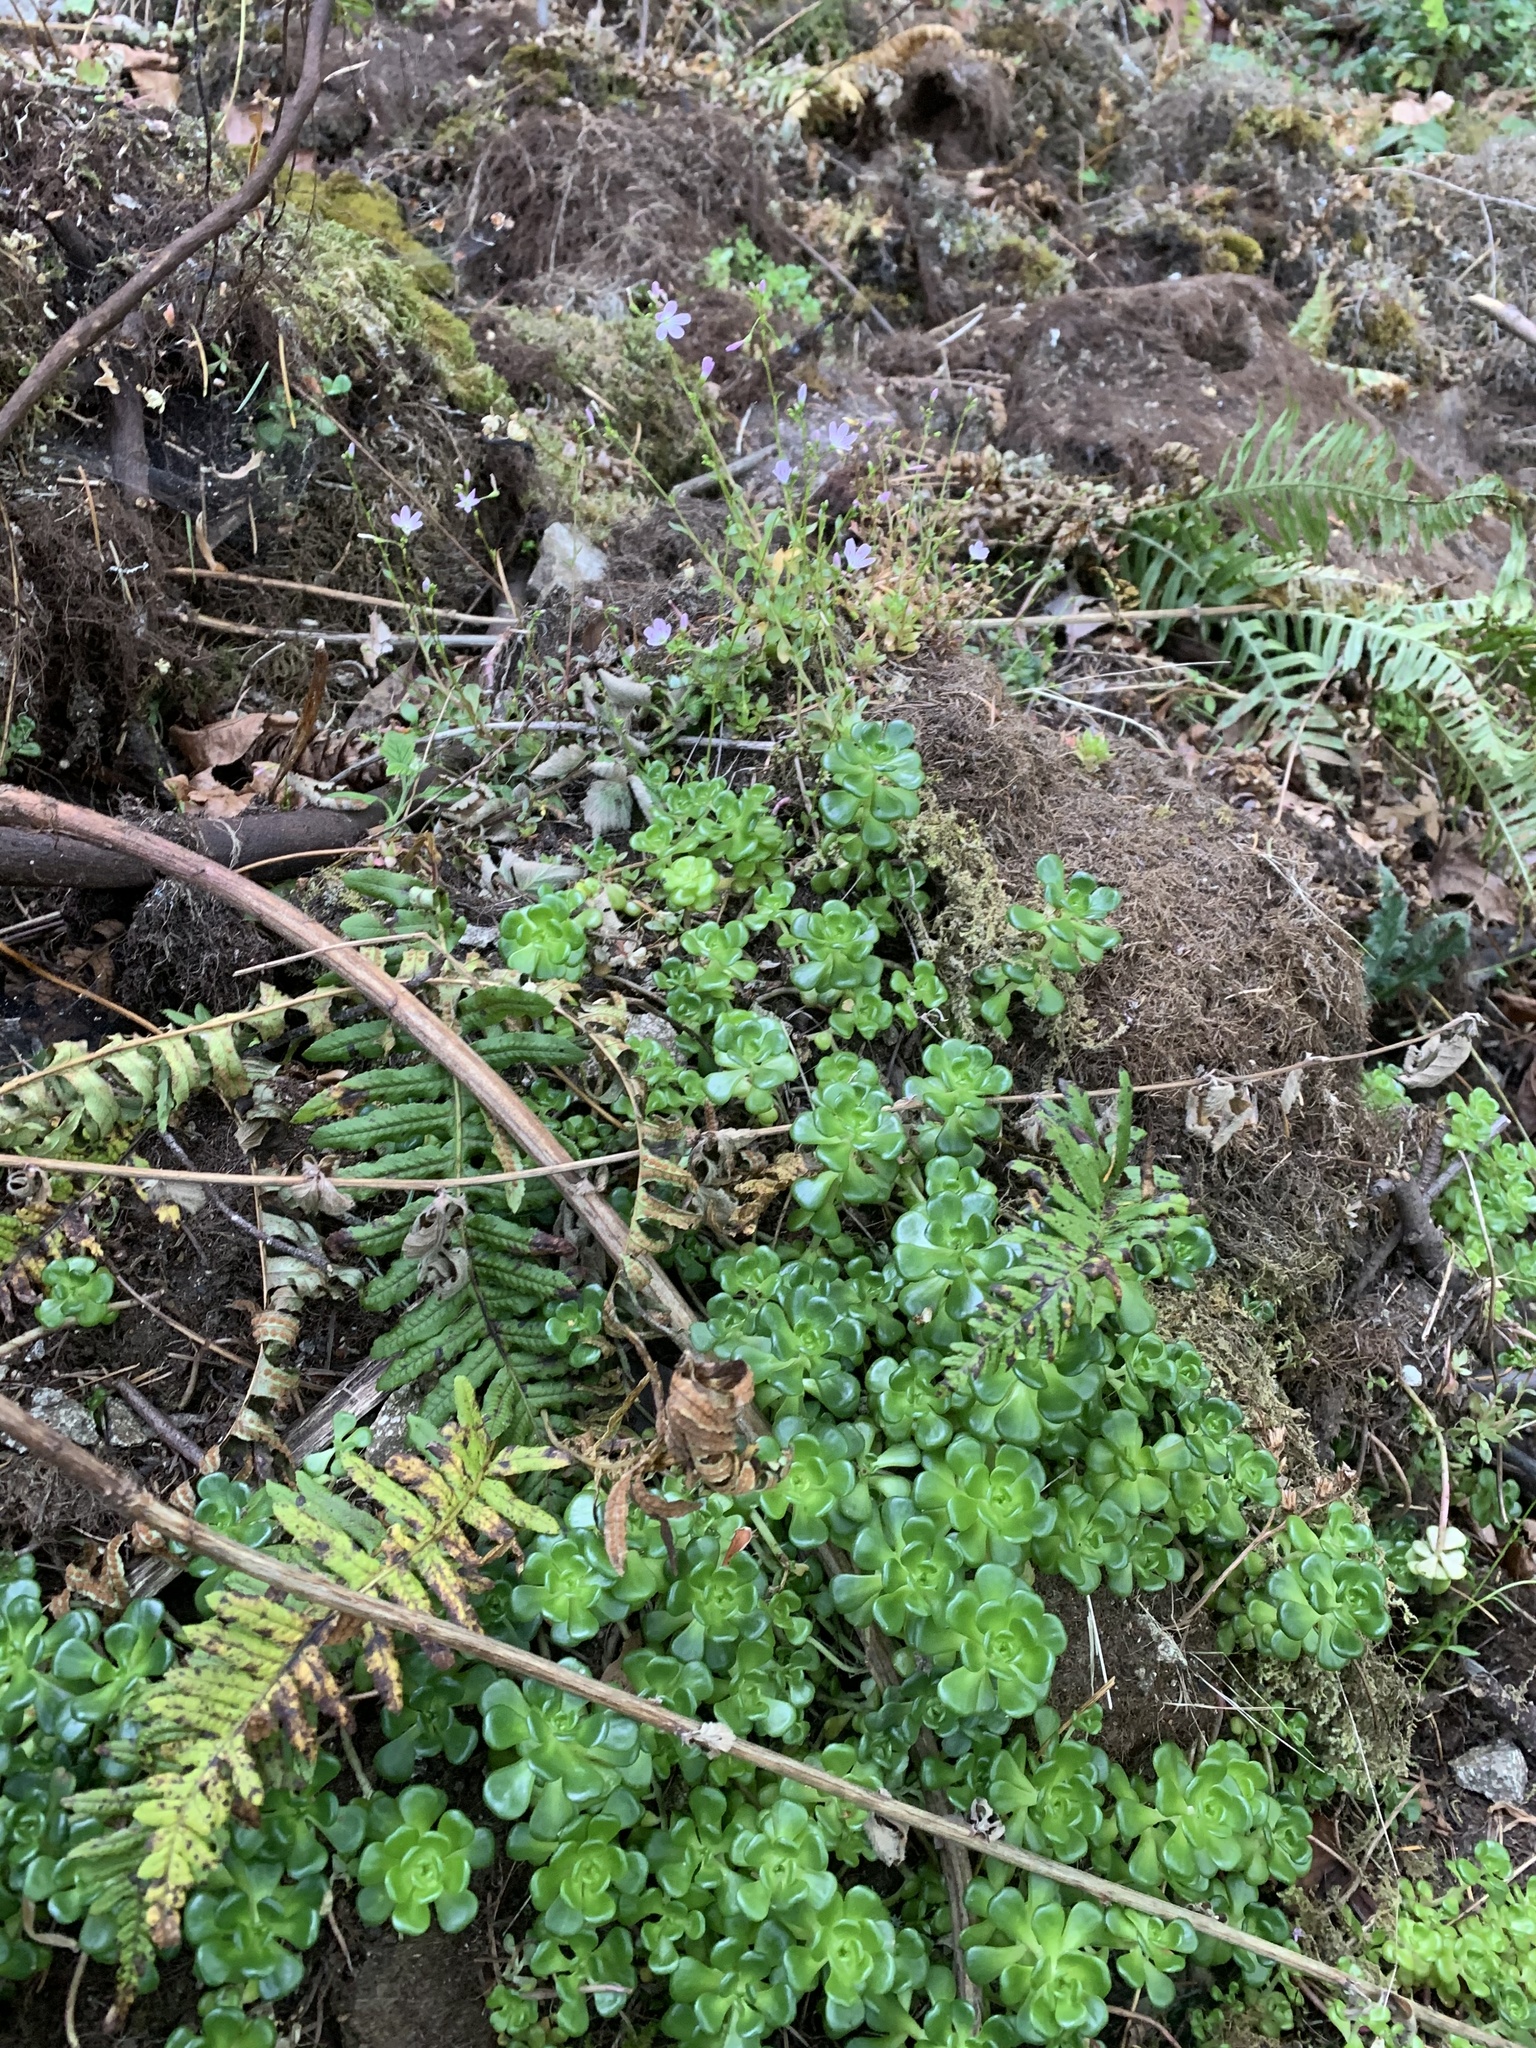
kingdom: Plantae
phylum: Tracheophyta
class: Magnoliopsida
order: Saxifragales
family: Crassulaceae
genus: Sedum
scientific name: Sedum oreganum
